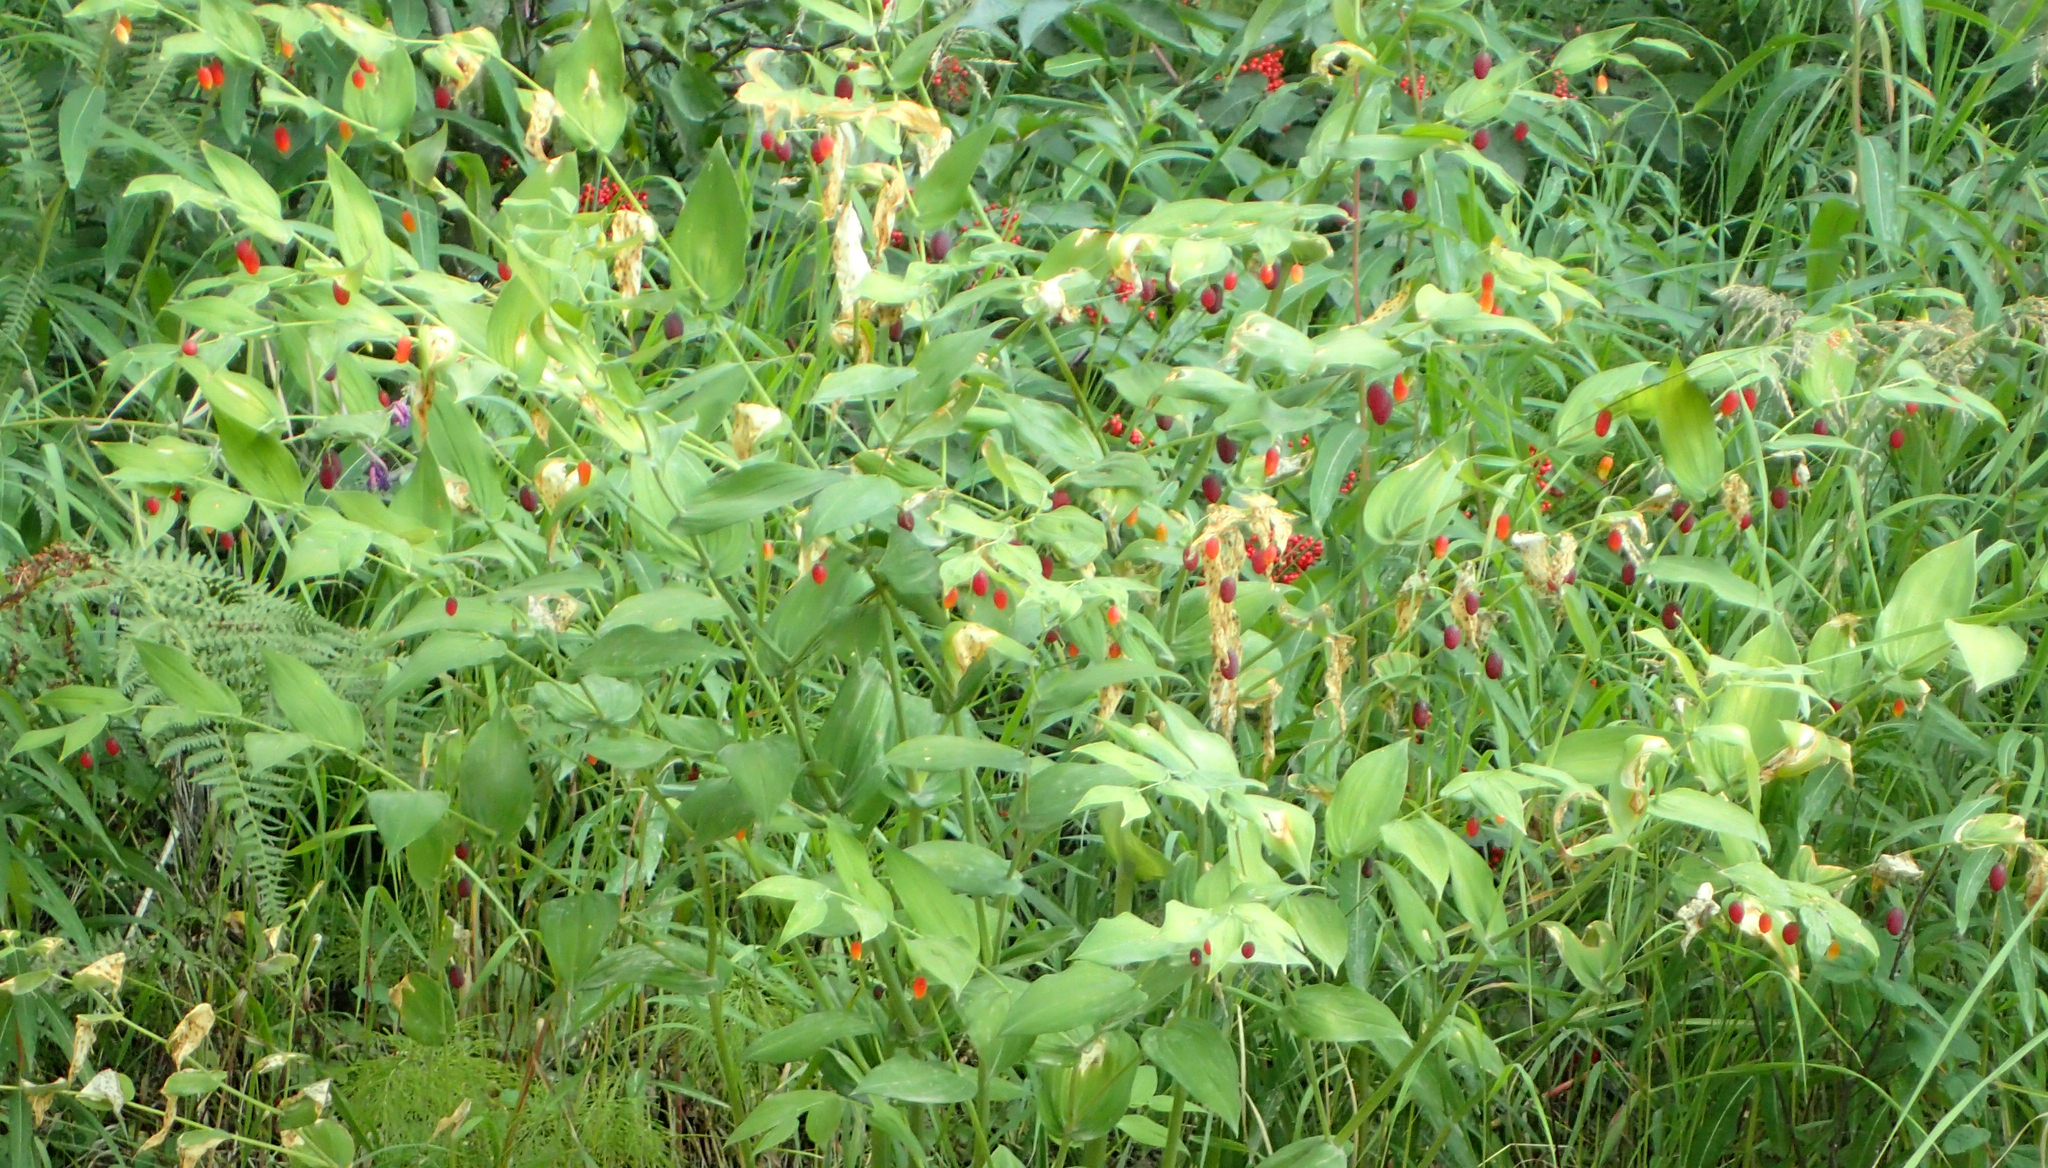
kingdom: Plantae
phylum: Tracheophyta
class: Liliopsida
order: Liliales
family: Liliaceae
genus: Streptopus
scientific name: Streptopus amplexifolius
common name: Clasp twisted stalk
